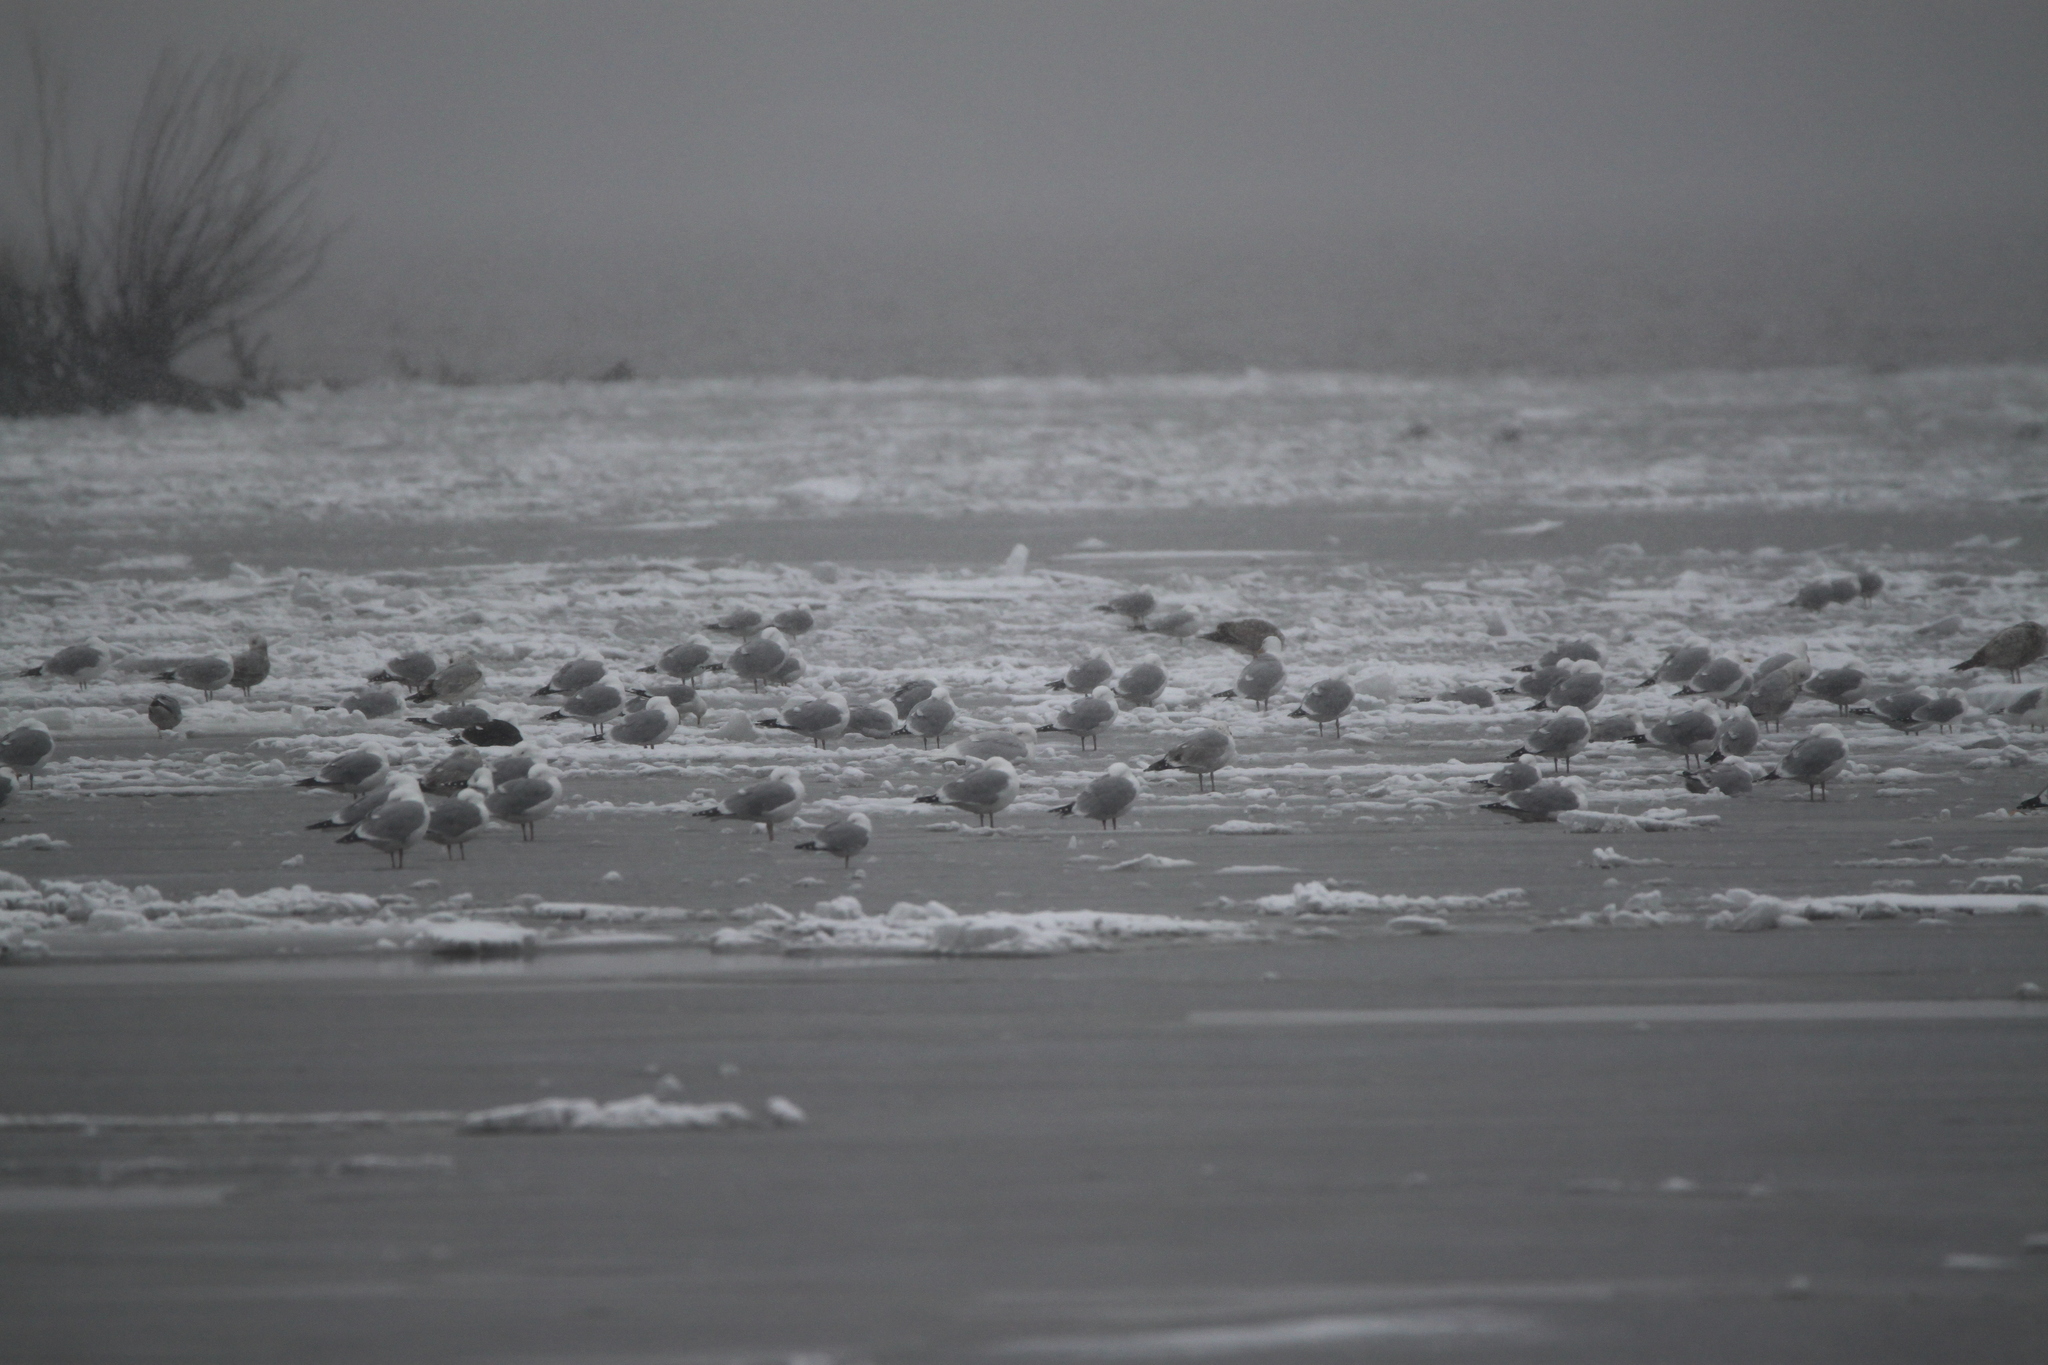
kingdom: Animalia
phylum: Chordata
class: Aves
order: Charadriiformes
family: Laridae
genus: Larus
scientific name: Larus marinus
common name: Great black-backed gull
